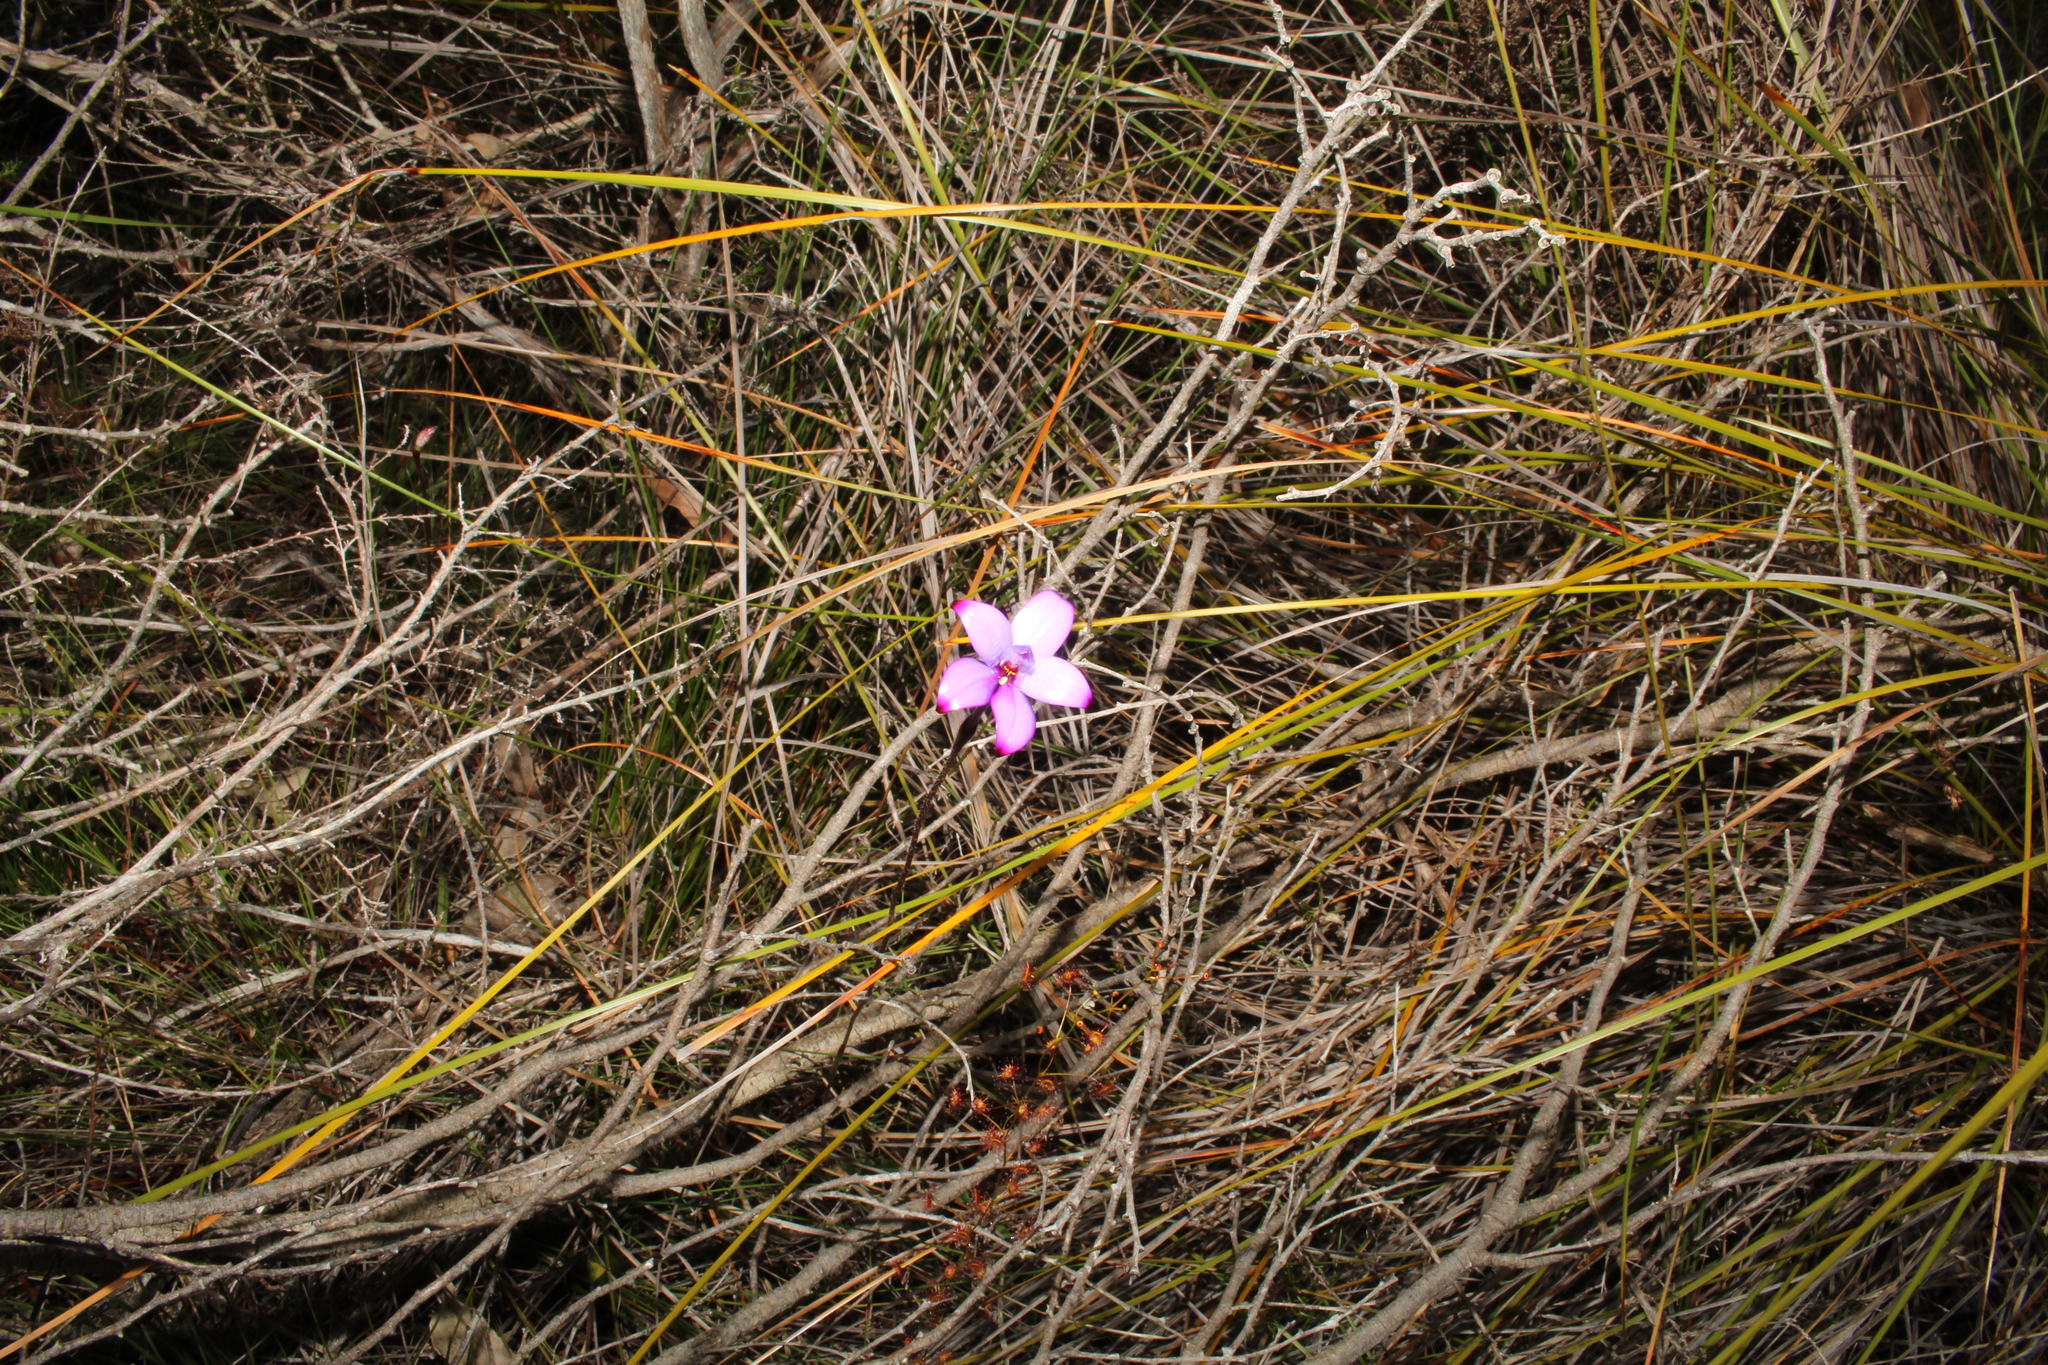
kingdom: Plantae
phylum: Tracheophyta
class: Liliopsida
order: Asparagales
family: Orchidaceae
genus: Caladenia
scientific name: Caladenia brunonis
